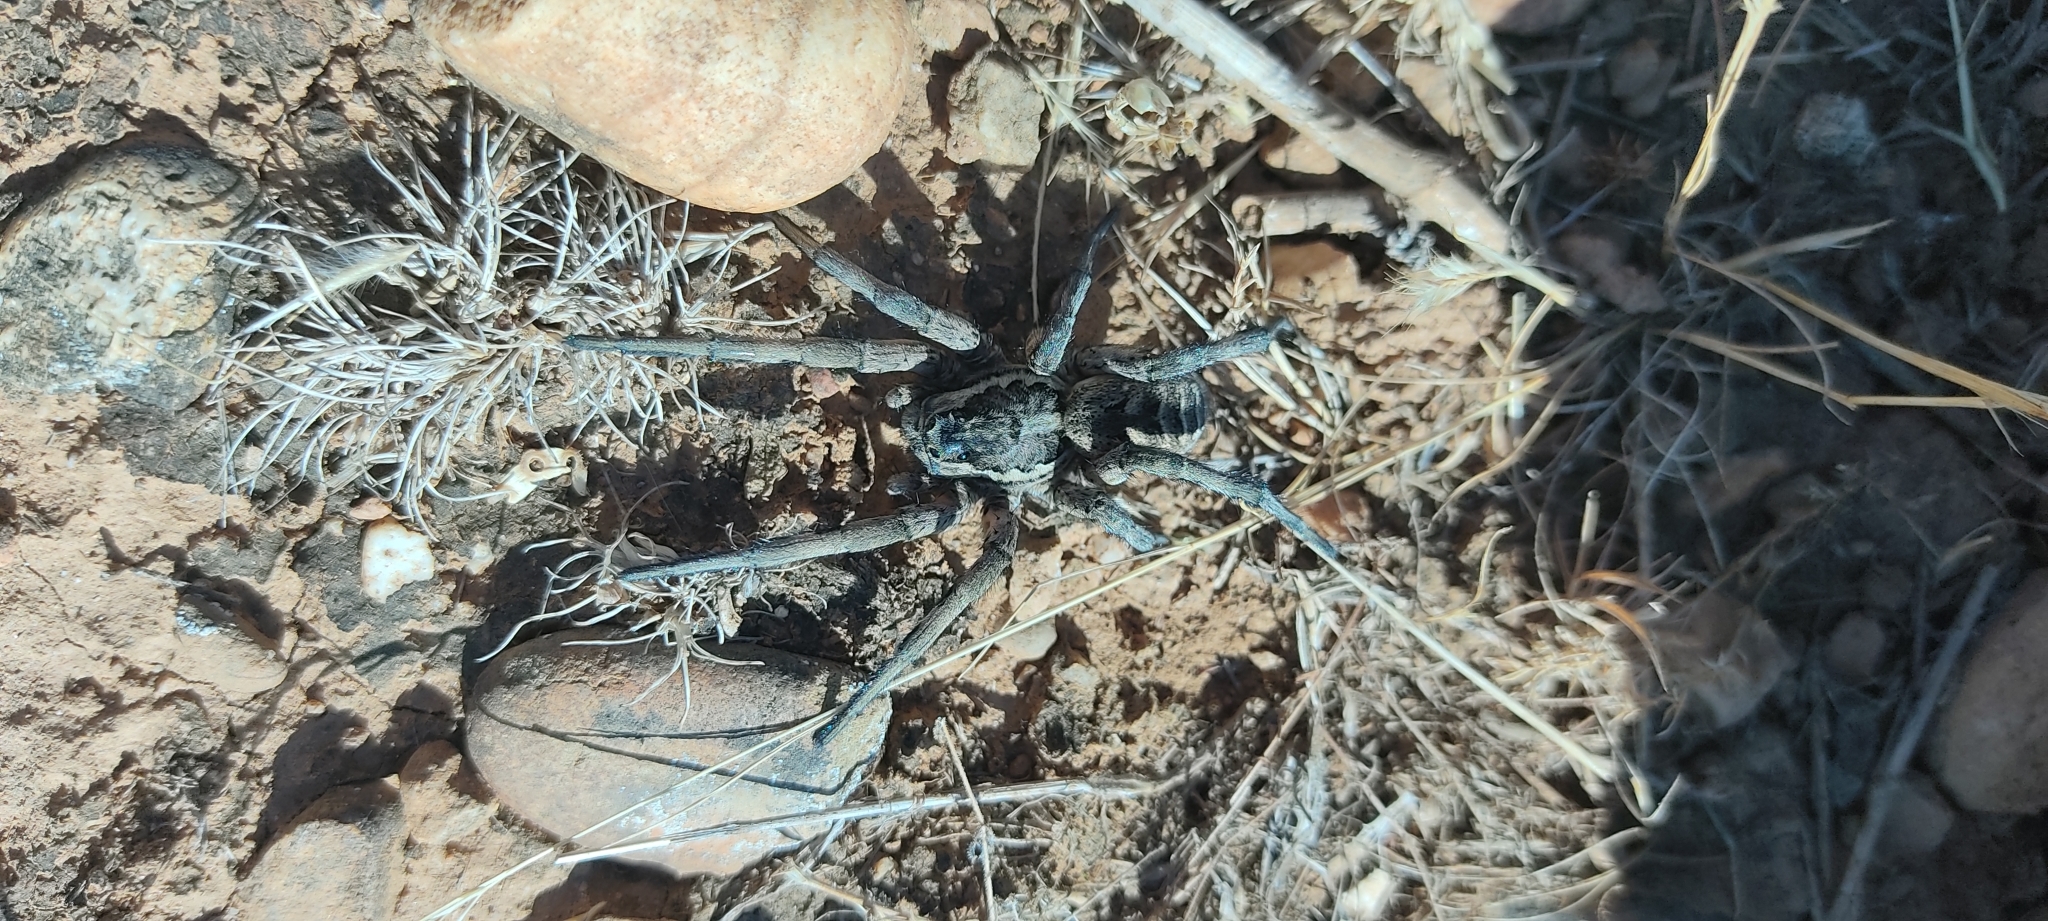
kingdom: Animalia
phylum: Arthropoda
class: Arachnida
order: Araneae
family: Lycosidae
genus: Lycosa
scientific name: Lycosa tarantula
